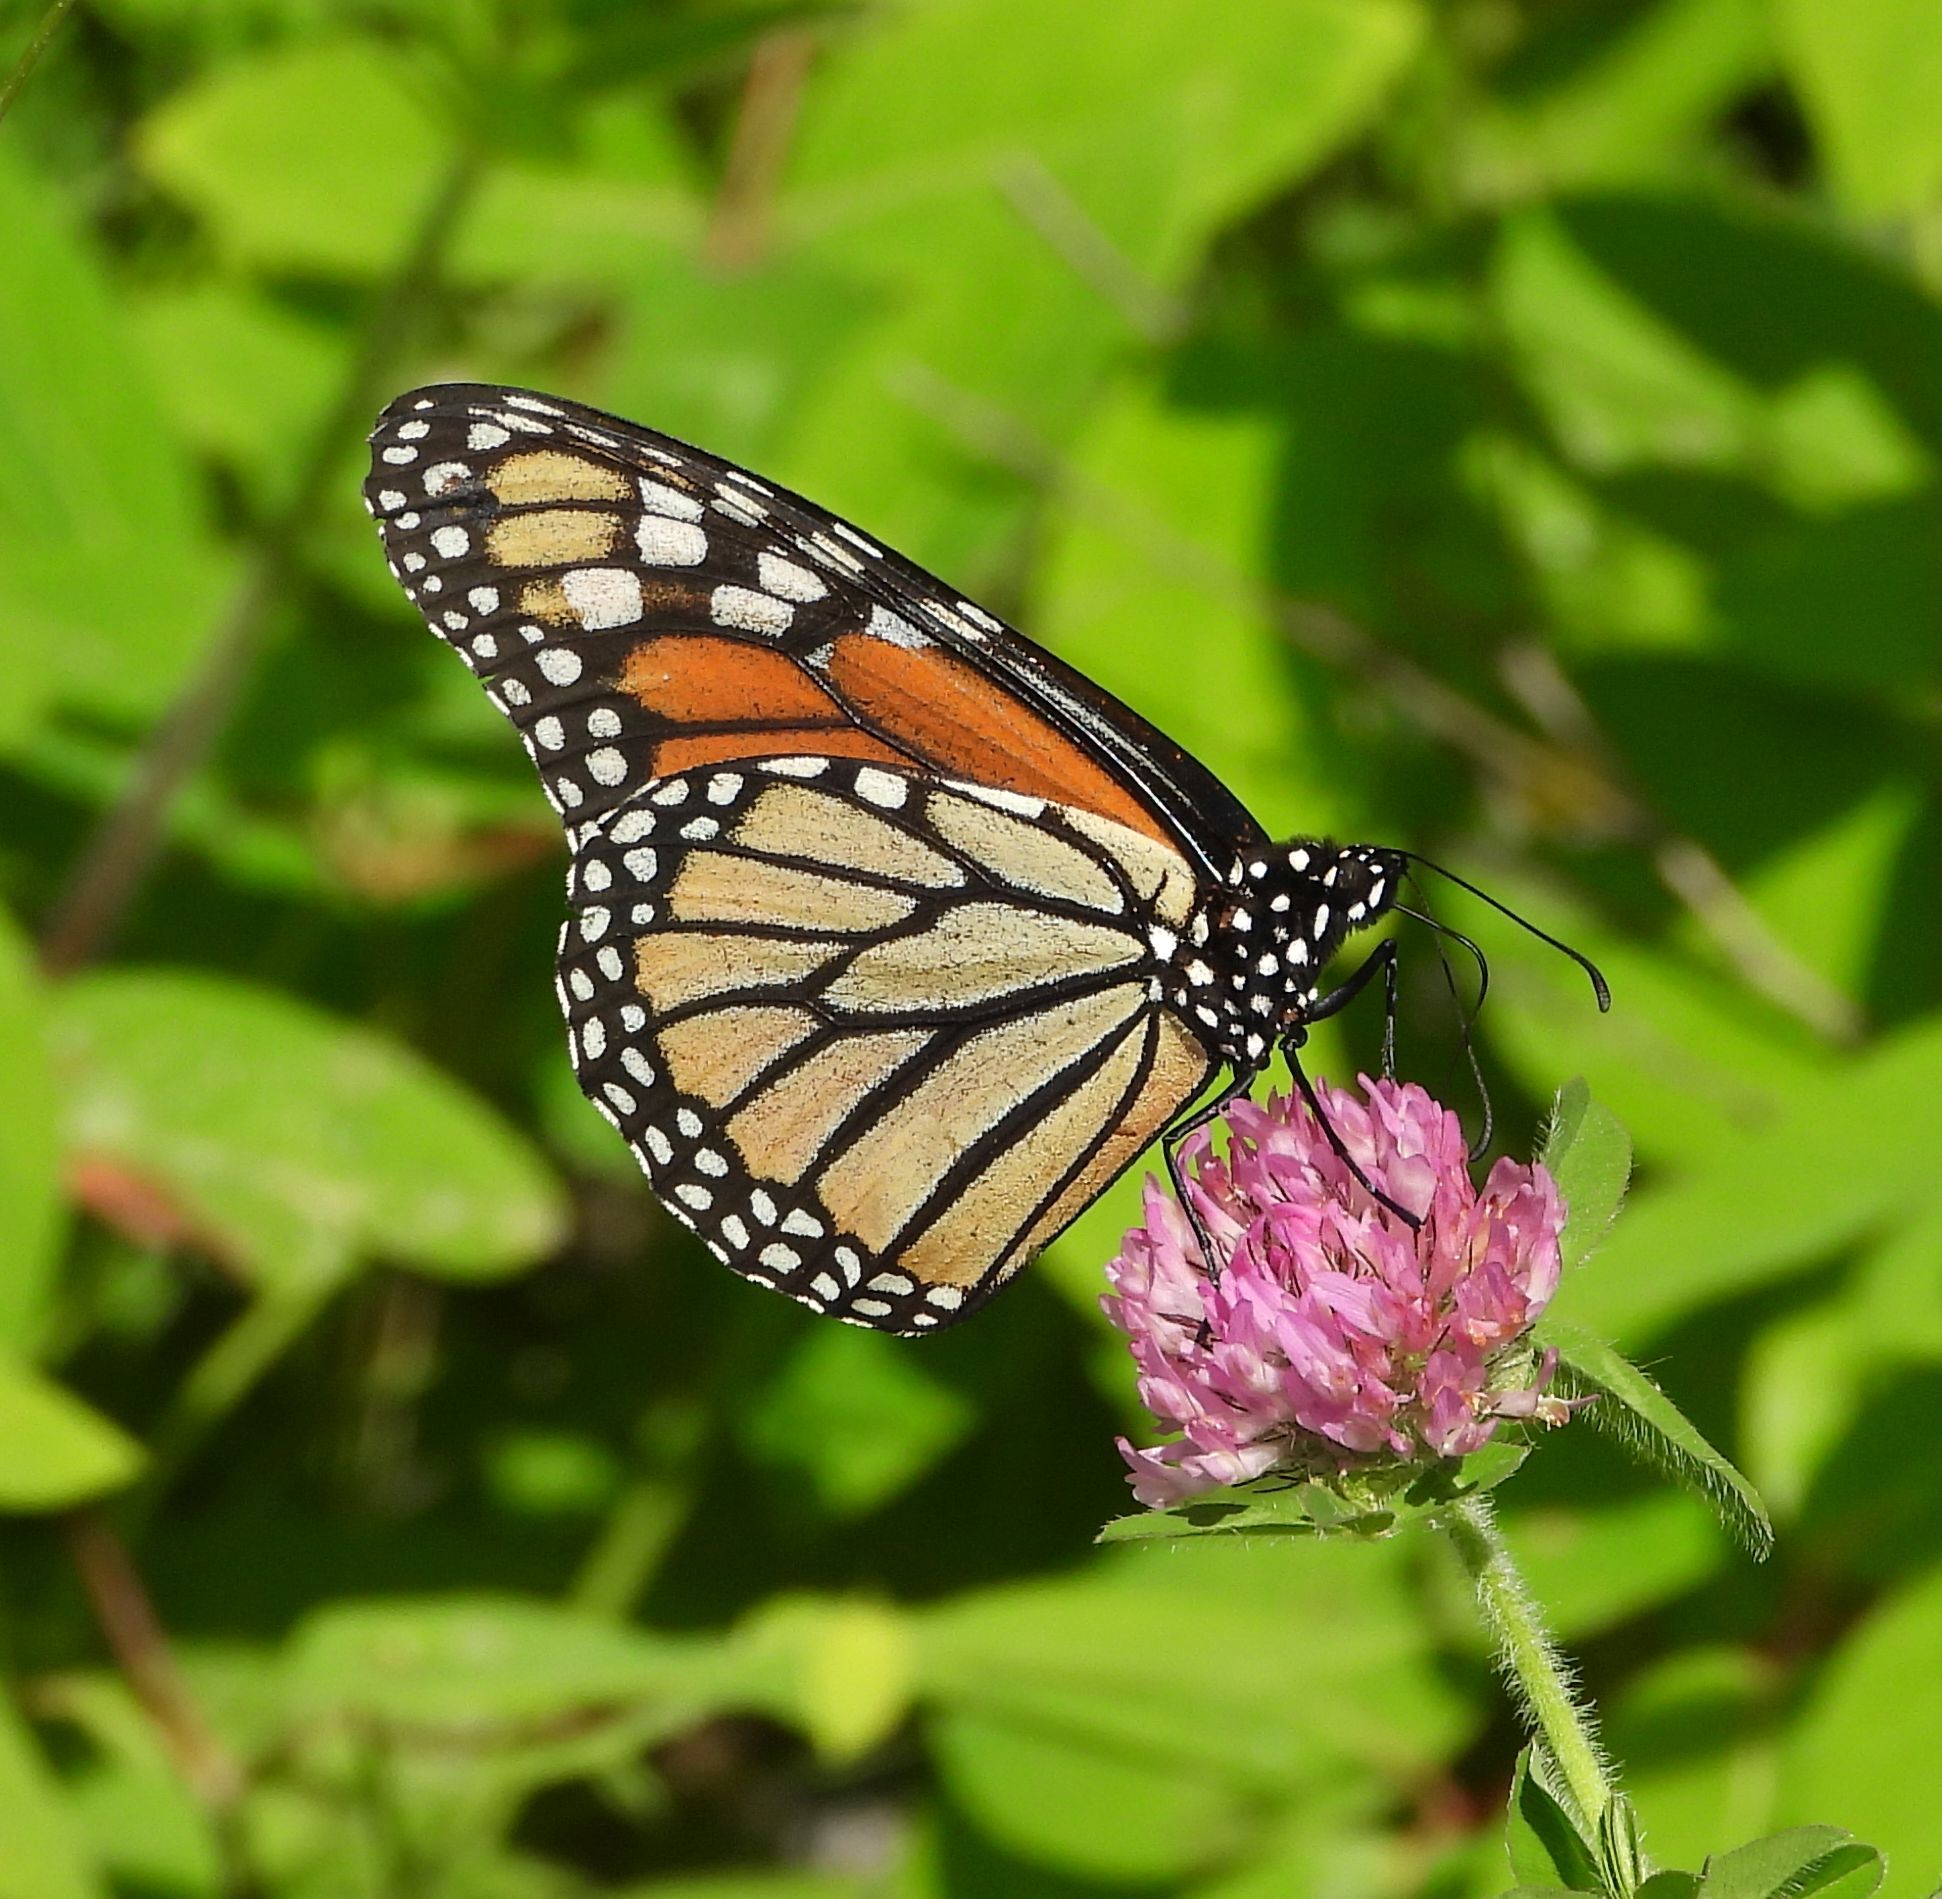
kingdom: Animalia
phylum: Arthropoda
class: Insecta
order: Lepidoptera
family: Nymphalidae
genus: Danaus
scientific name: Danaus plexippus
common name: Monarch
